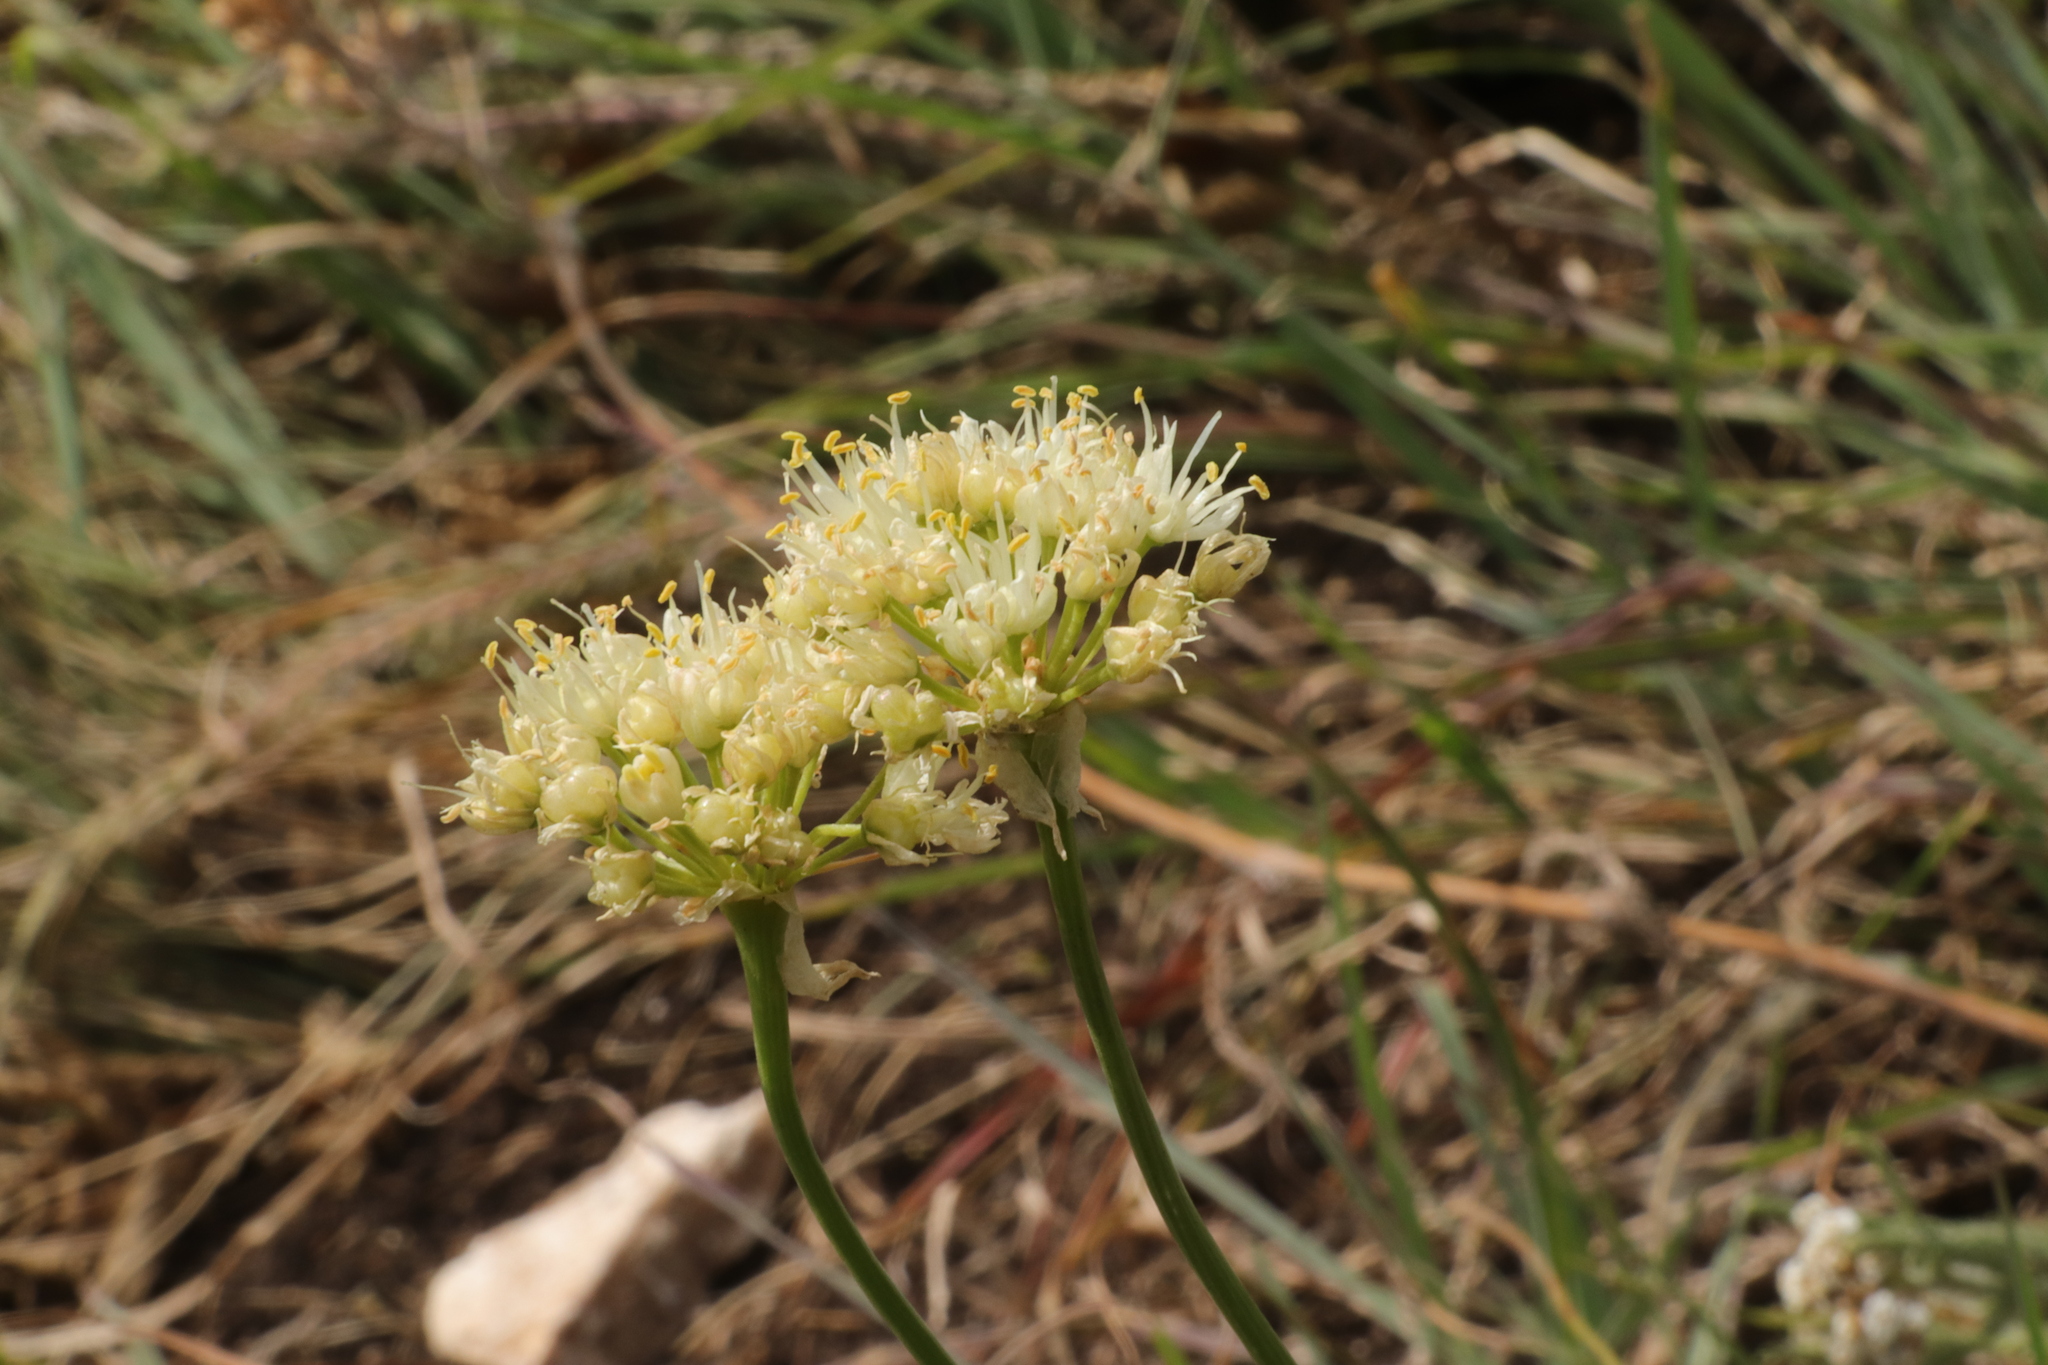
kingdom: Plantae
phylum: Tracheophyta
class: Liliopsida
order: Asparagales
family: Amaryllidaceae
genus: Allium
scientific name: Allium flavescens
